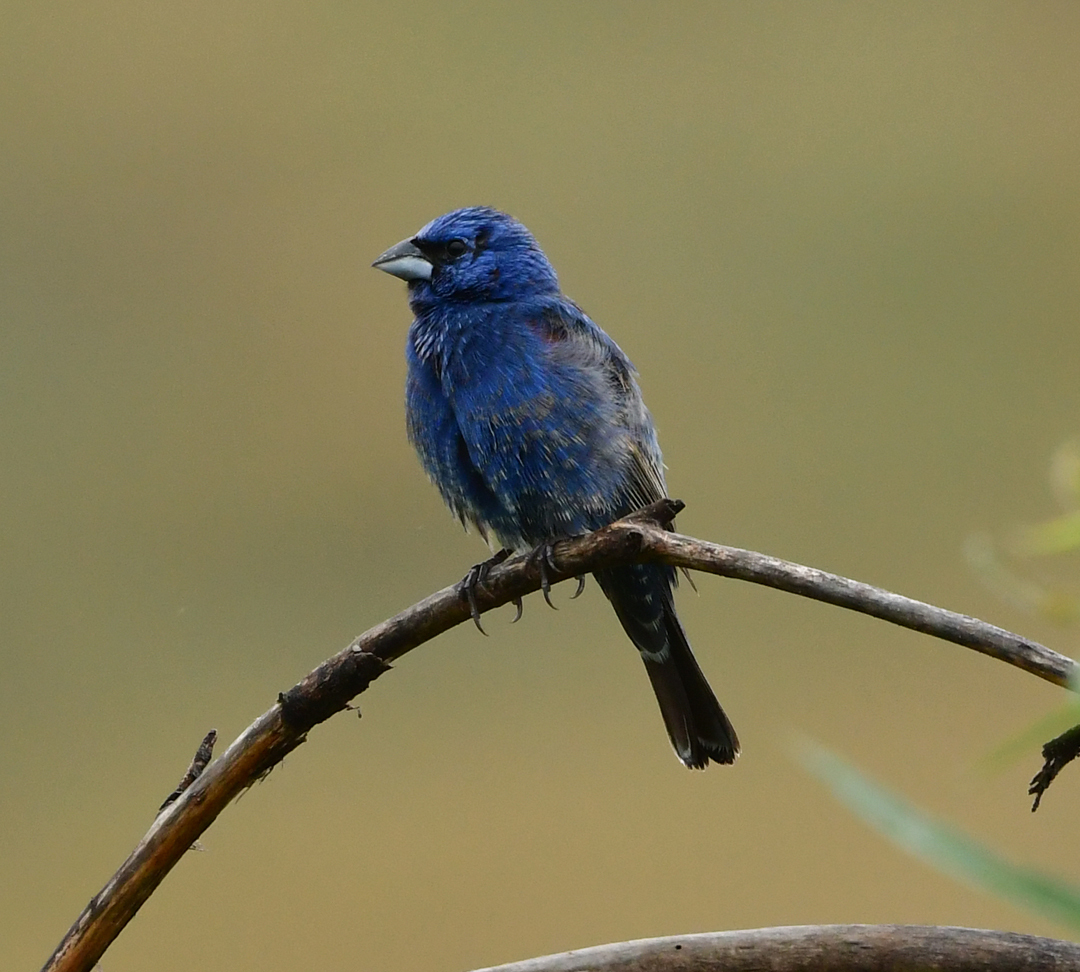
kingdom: Animalia
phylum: Chordata
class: Aves
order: Passeriformes
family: Cardinalidae
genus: Passerina
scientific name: Passerina caerulea
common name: Blue grosbeak
